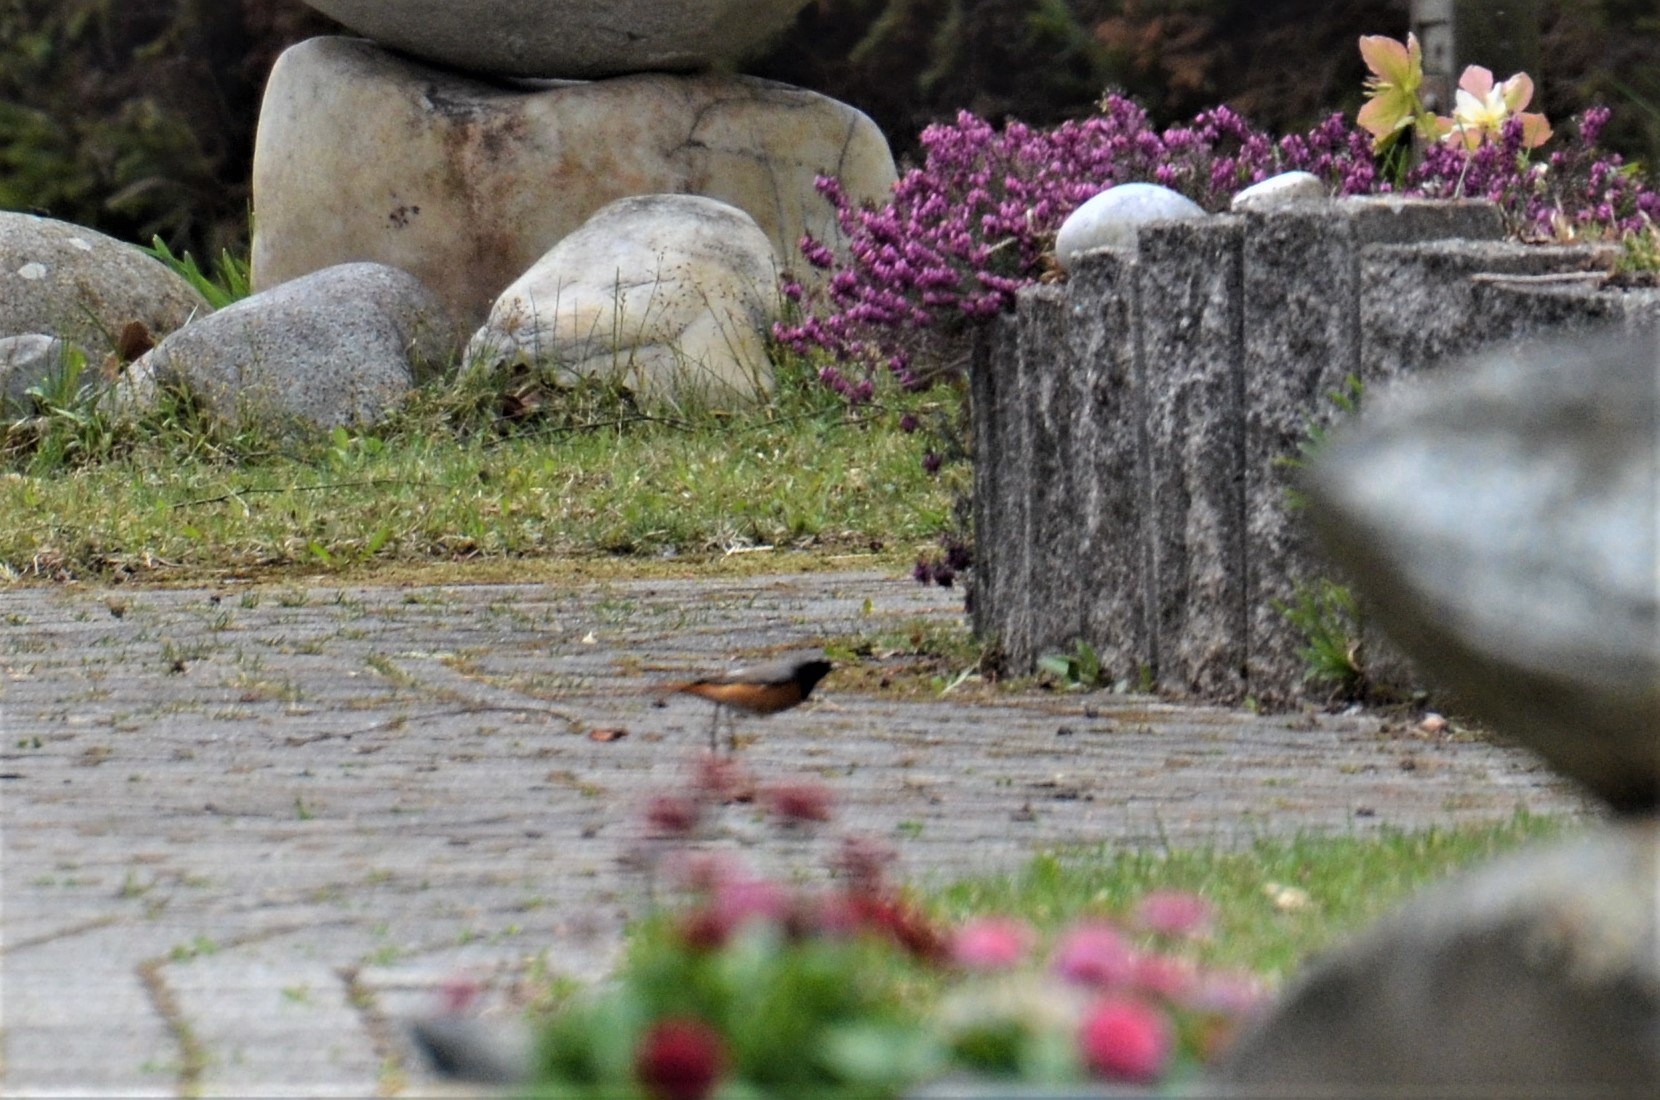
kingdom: Animalia
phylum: Chordata
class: Aves
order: Passeriformes
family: Muscicapidae
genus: Phoenicurus
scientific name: Phoenicurus phoenicurus
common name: Common redstart
